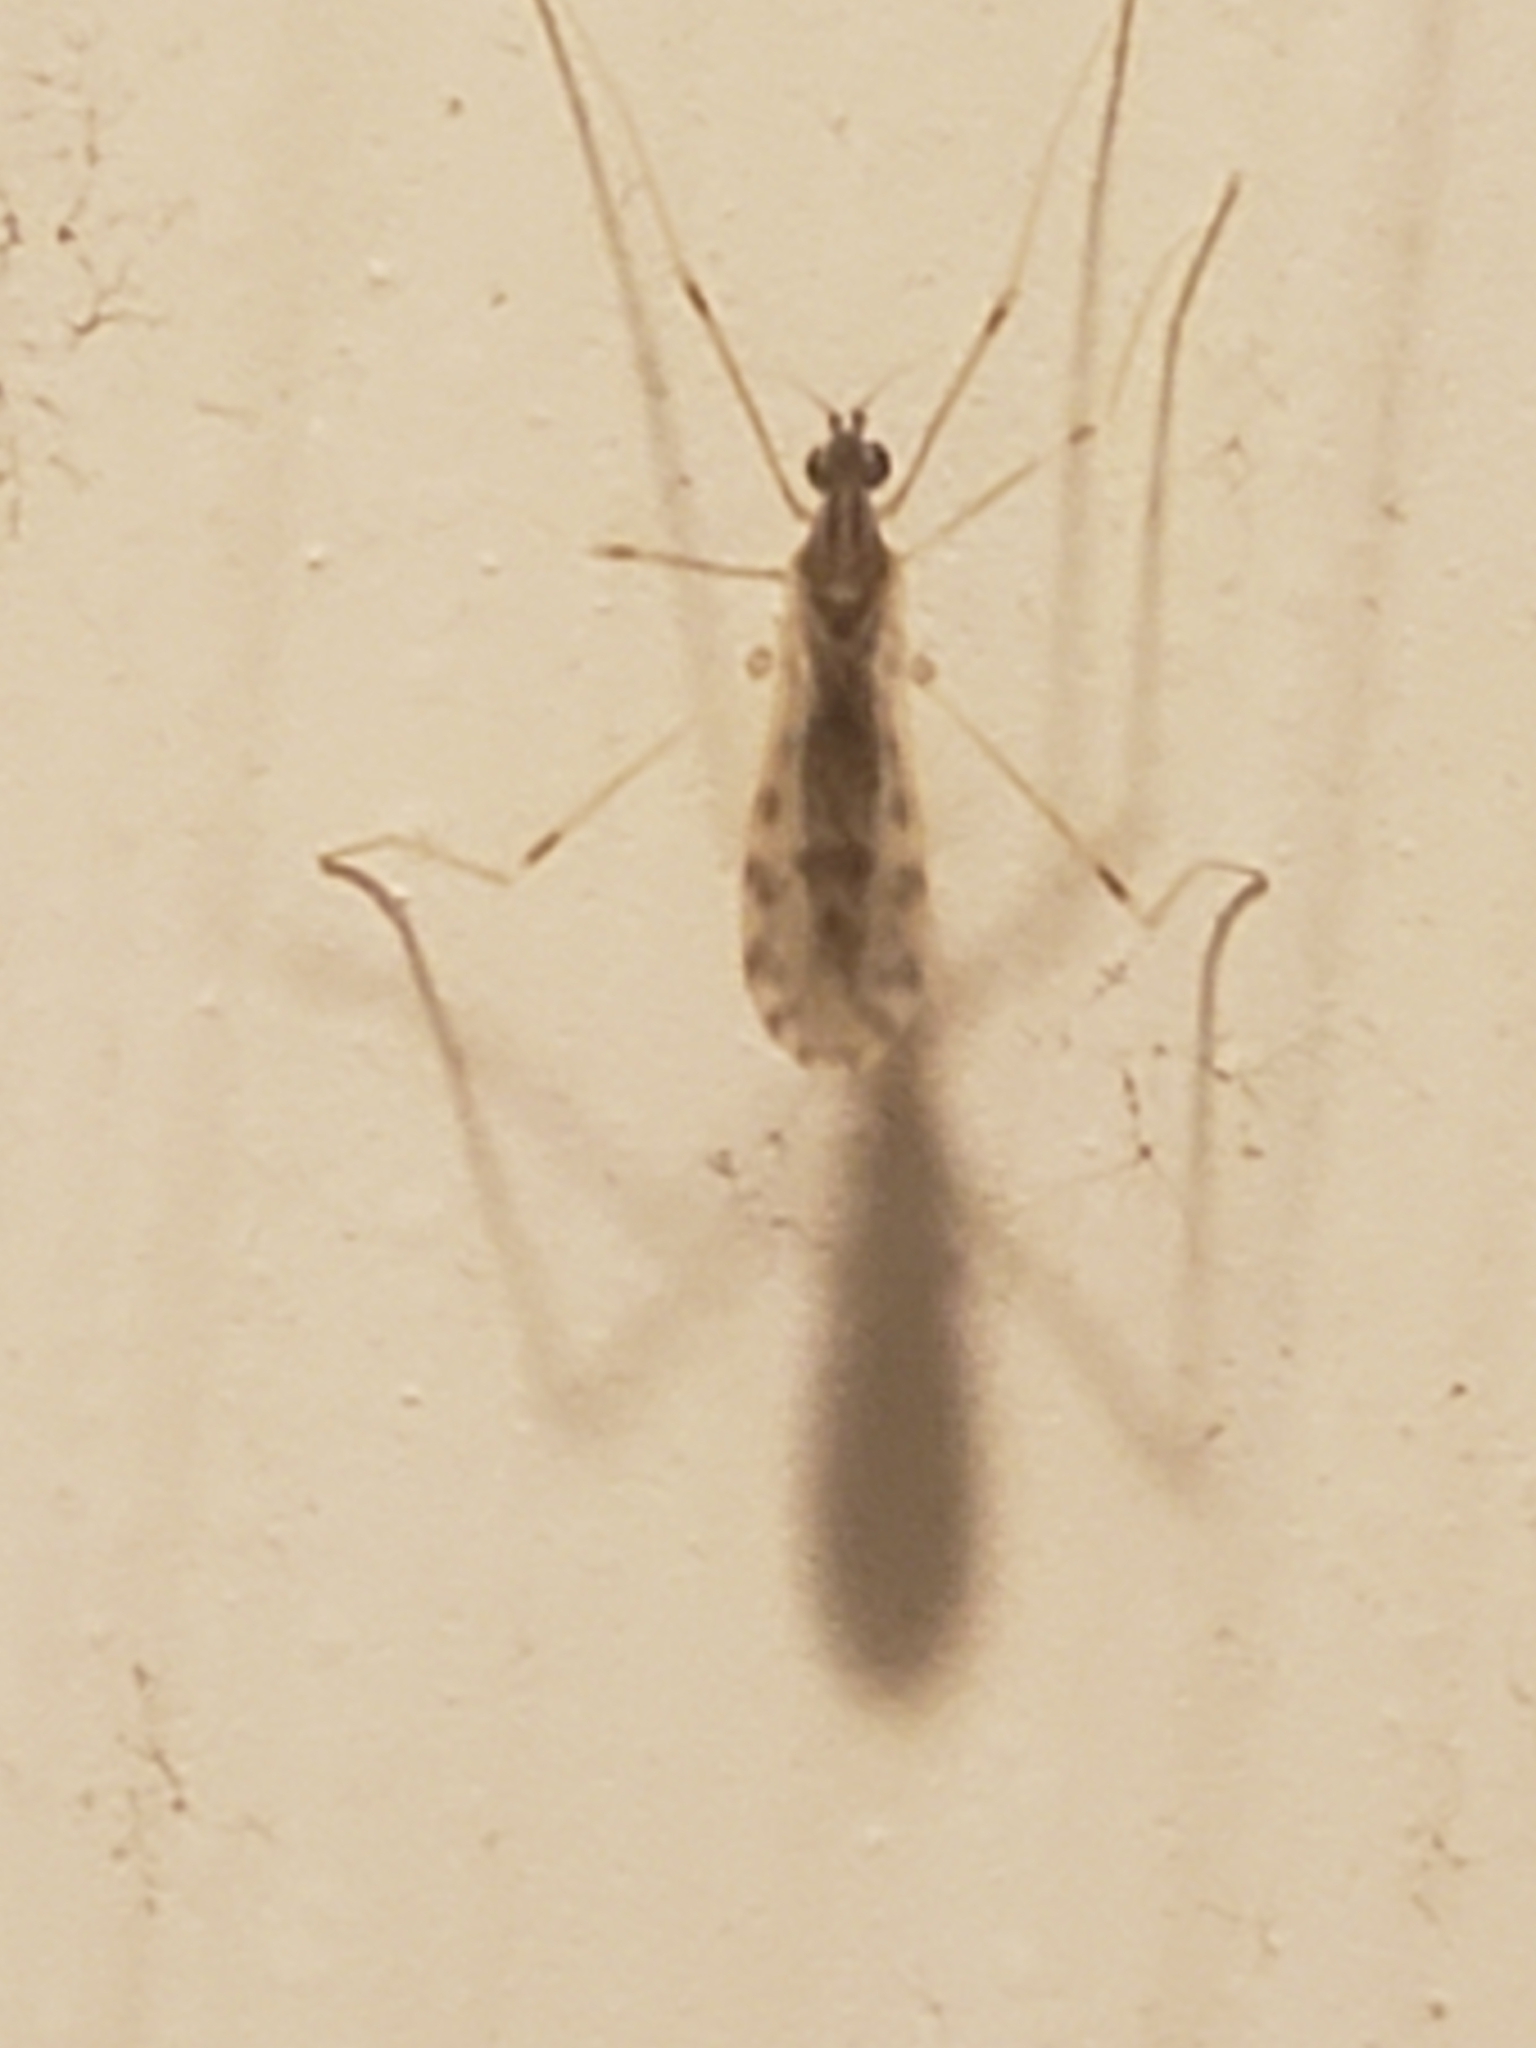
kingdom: Animalia
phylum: Arthropoda
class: Insecta
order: Diptera
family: Limoniidae
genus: Erioptera
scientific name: Erioptera parva
